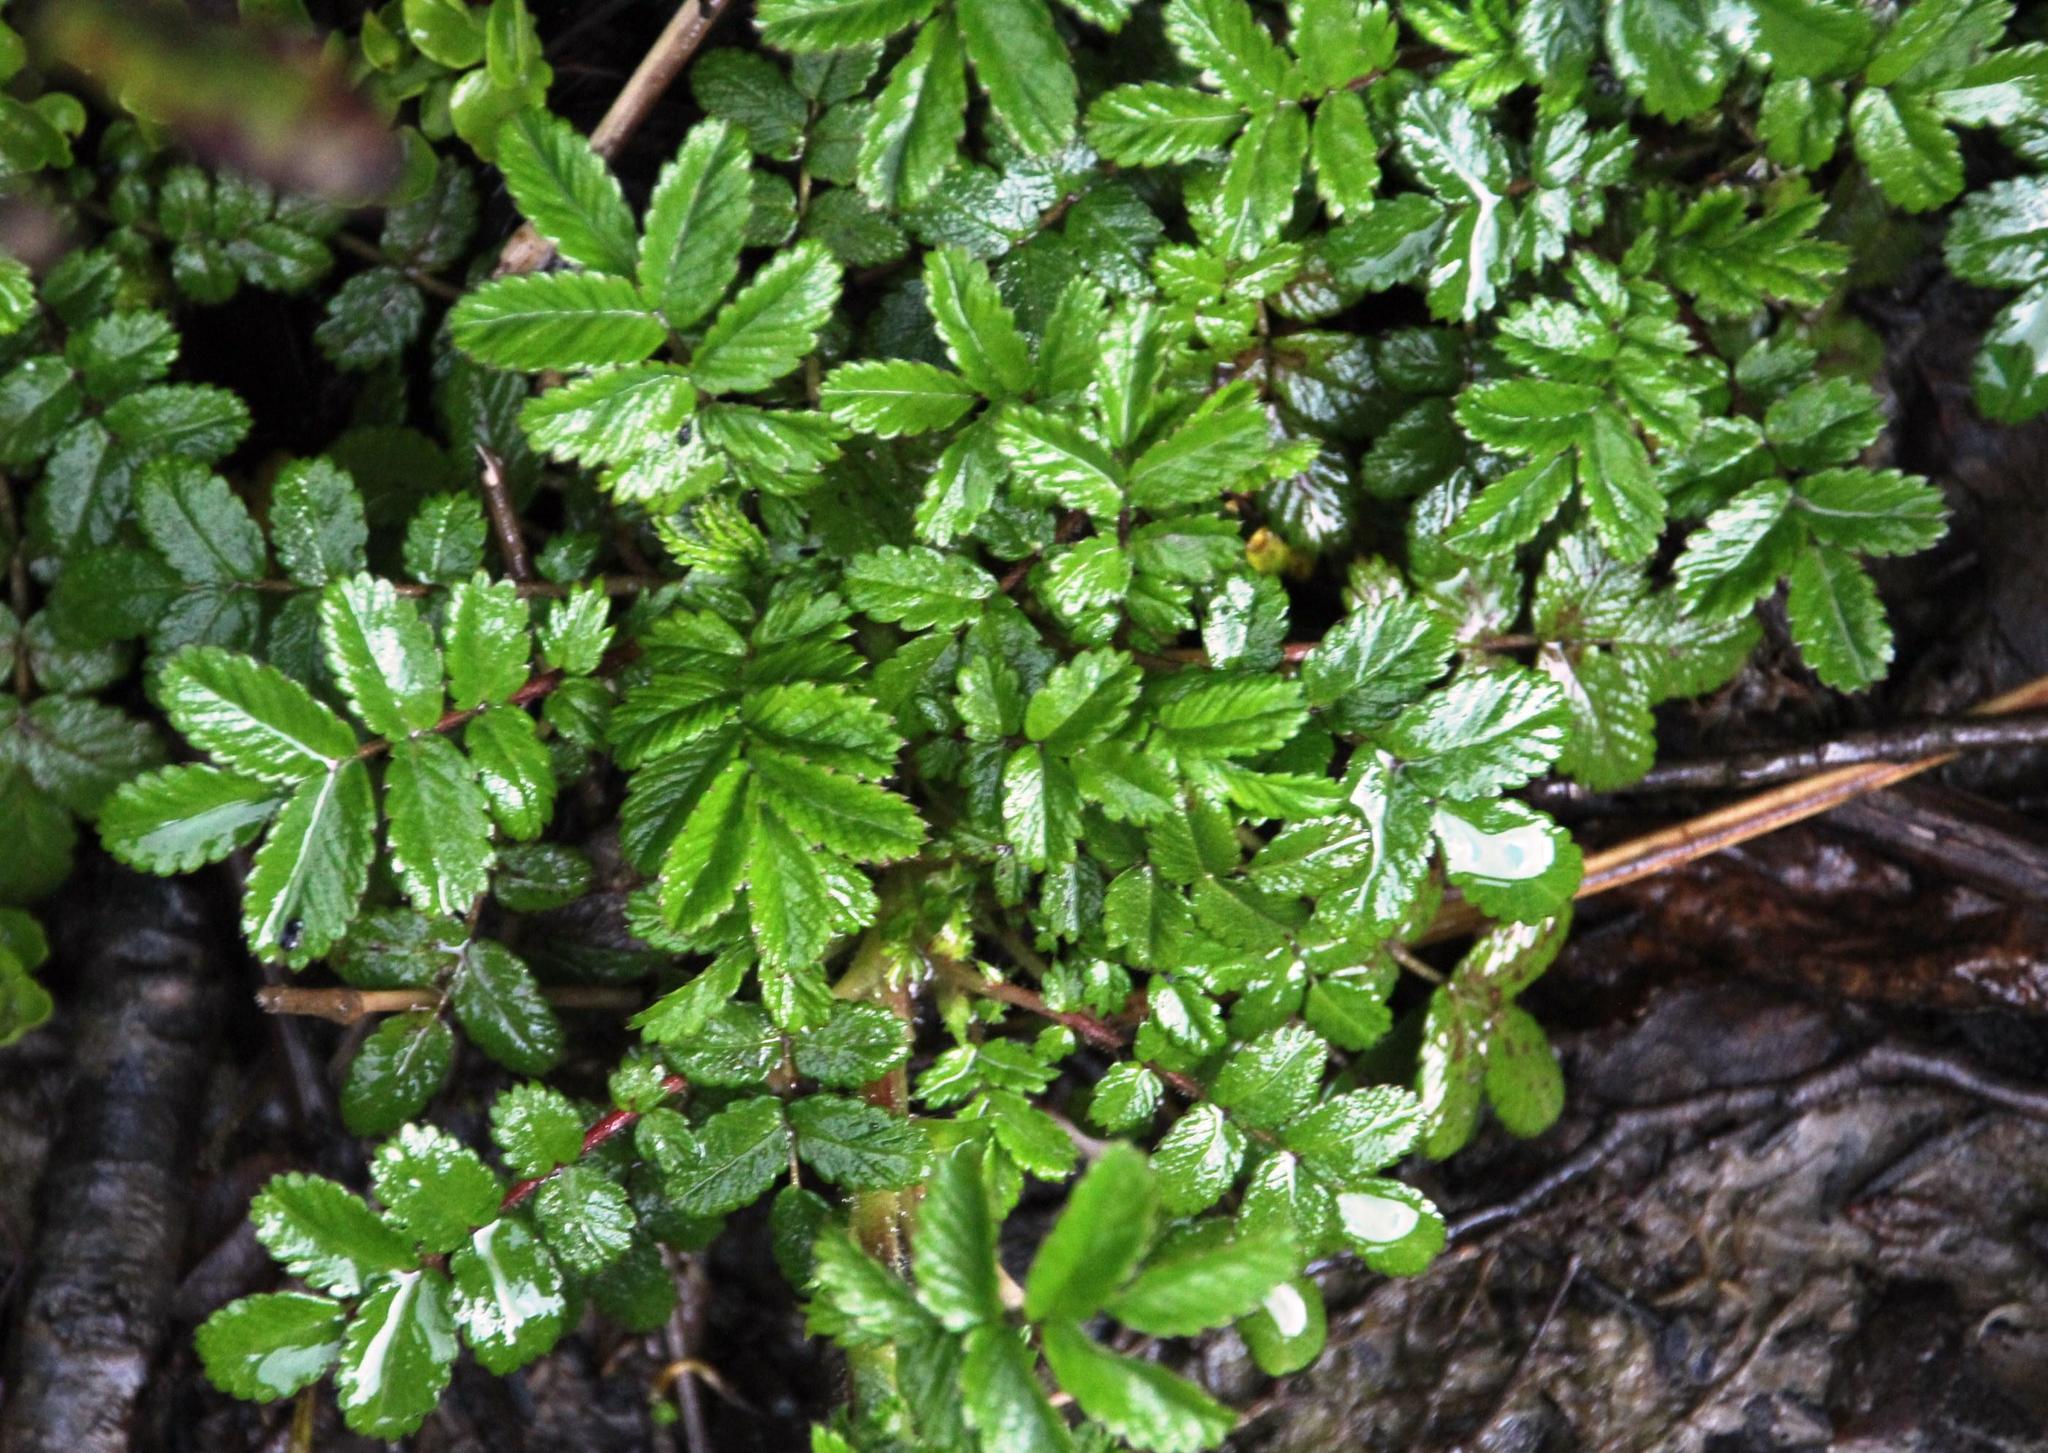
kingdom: Plantae
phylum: Tracheophyta
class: Magnoliopsida
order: Rosales
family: Rosaceae
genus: Acaena
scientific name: Acaena ovalifolia
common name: Two-spined acaena
